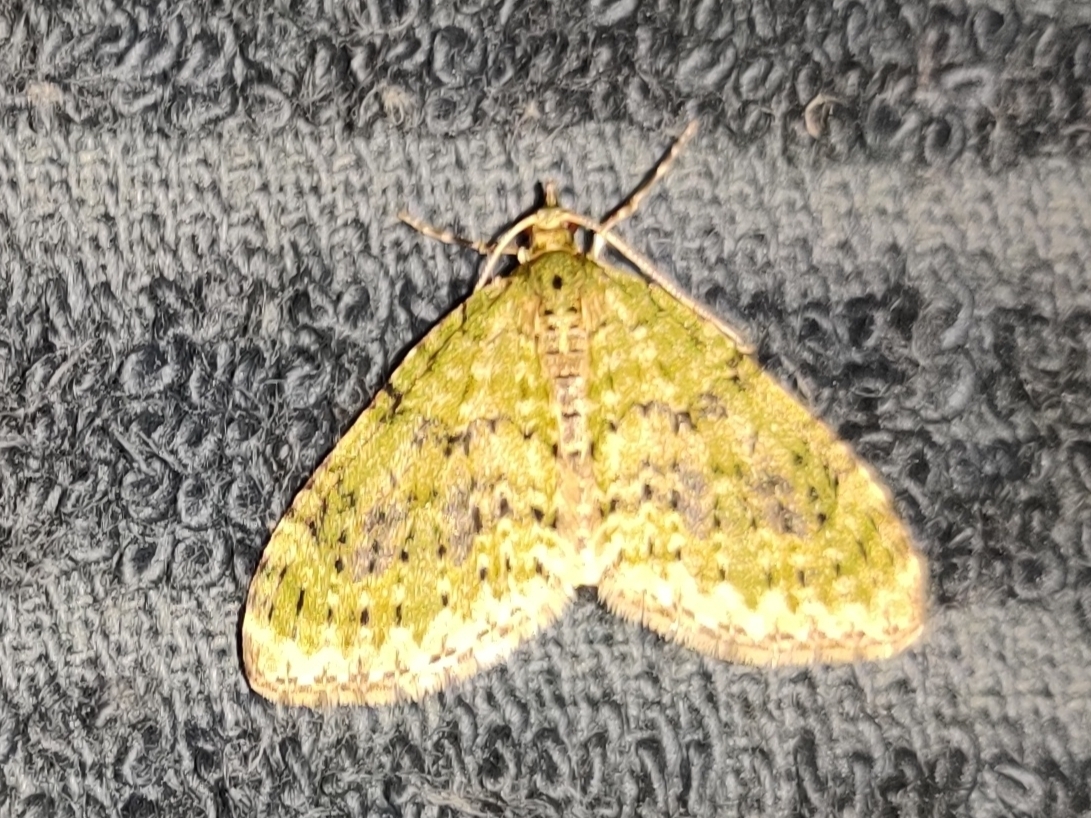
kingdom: Animalia
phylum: Arthropoda
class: Insecta
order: Lepidoptera
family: Geometridae
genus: Acasis
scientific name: Acasis viretata
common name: Yellow-barred brindle
